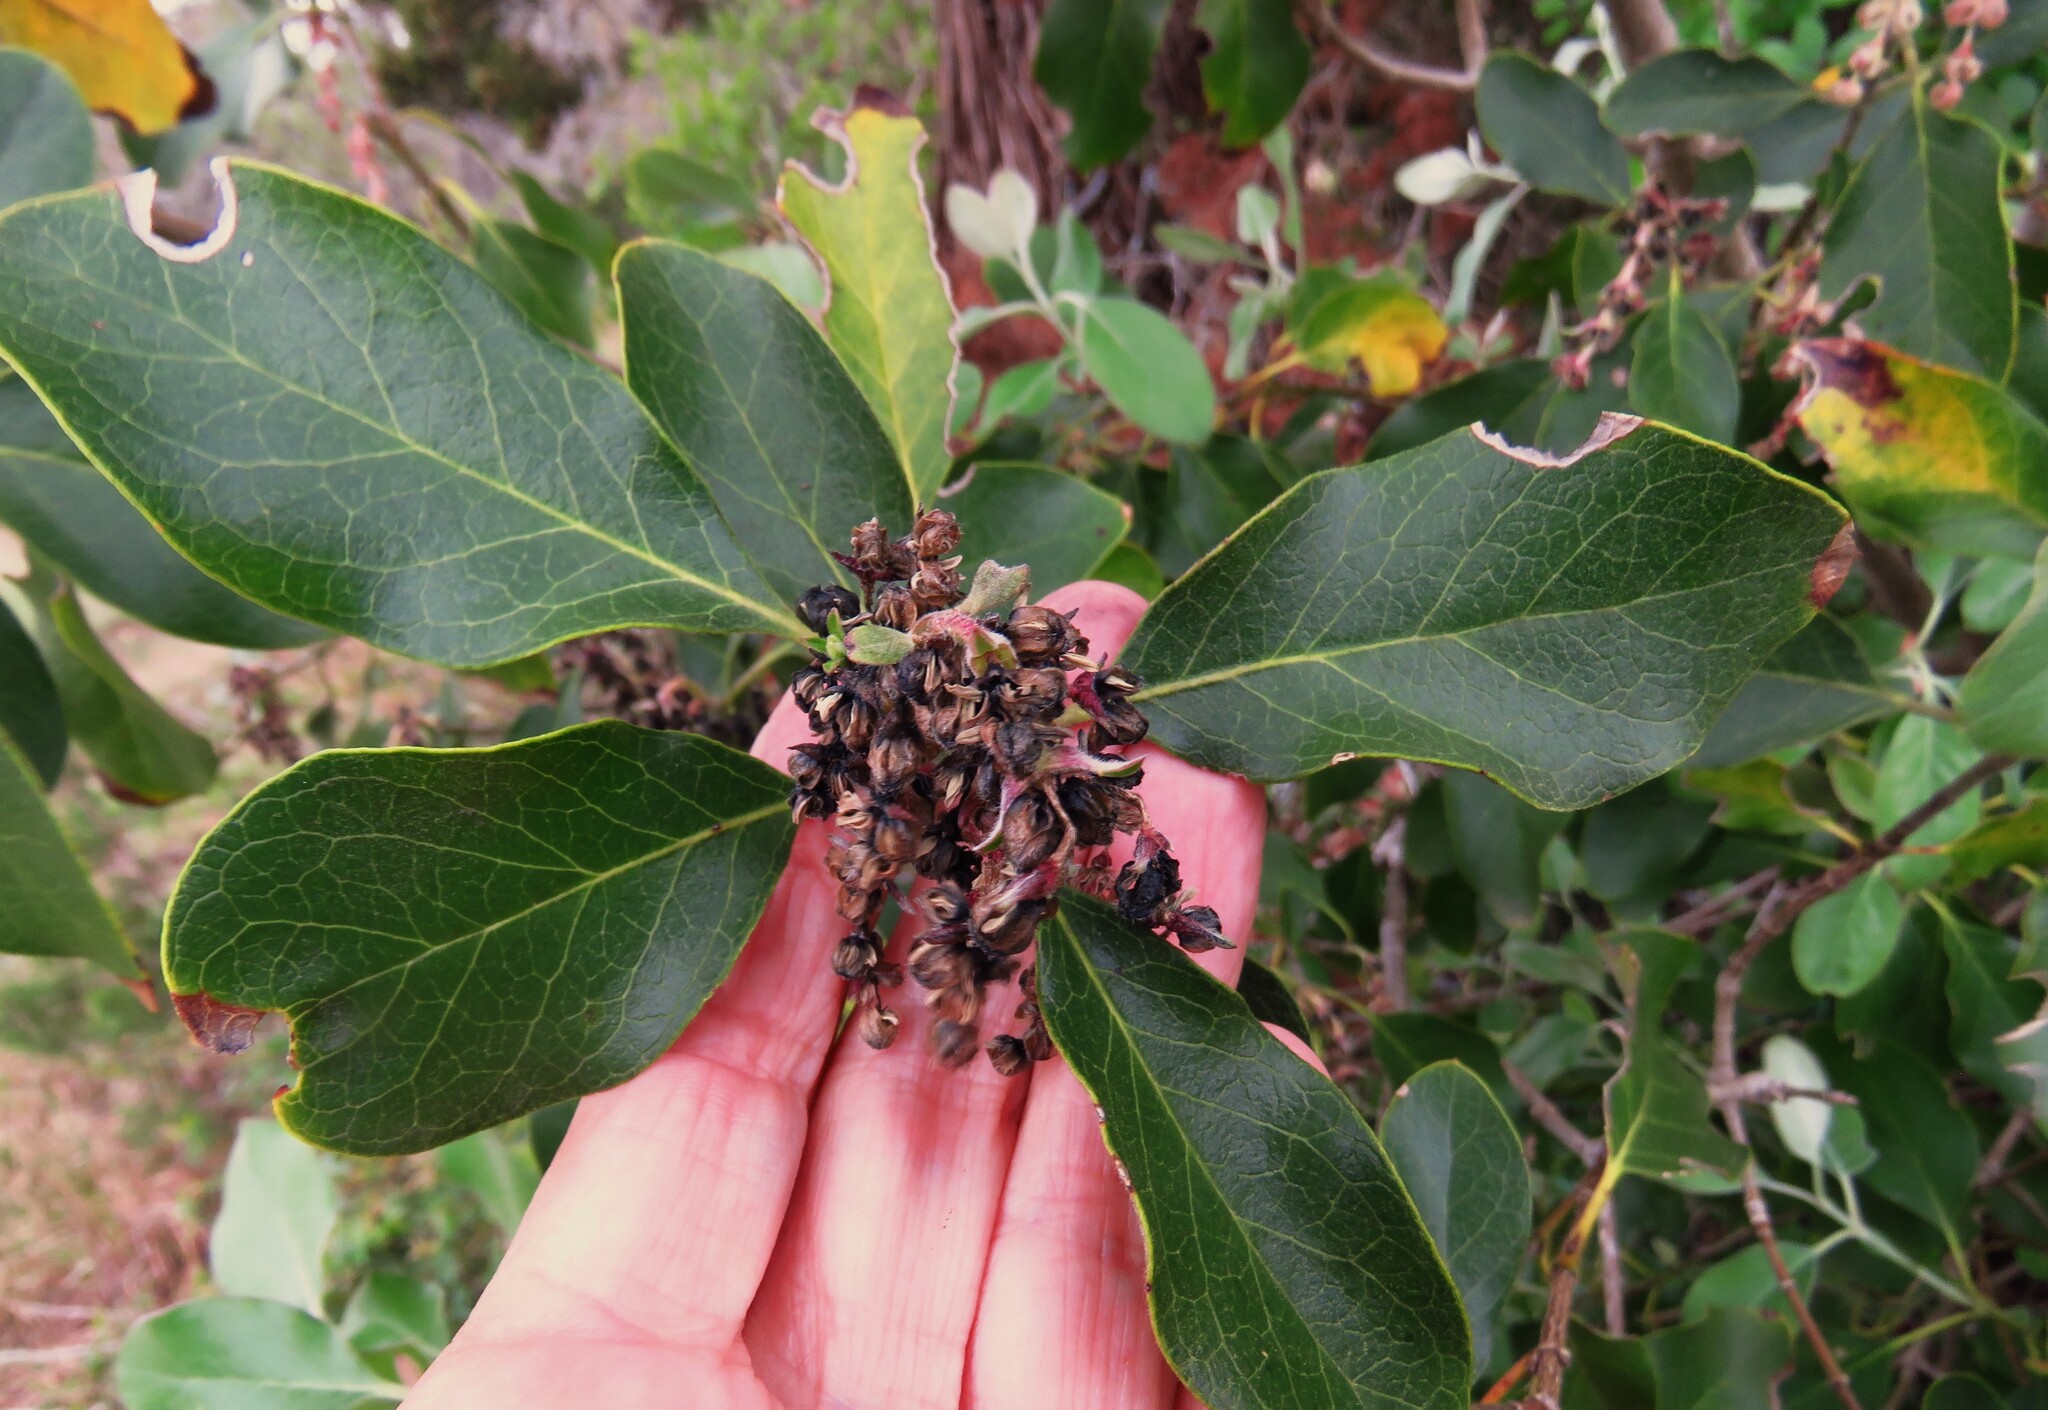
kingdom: Plantae
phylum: Tracheophyta
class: Magnoliopsida
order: Garryales
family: Garryaceae
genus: Garrya
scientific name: Garrya lindheimeri
